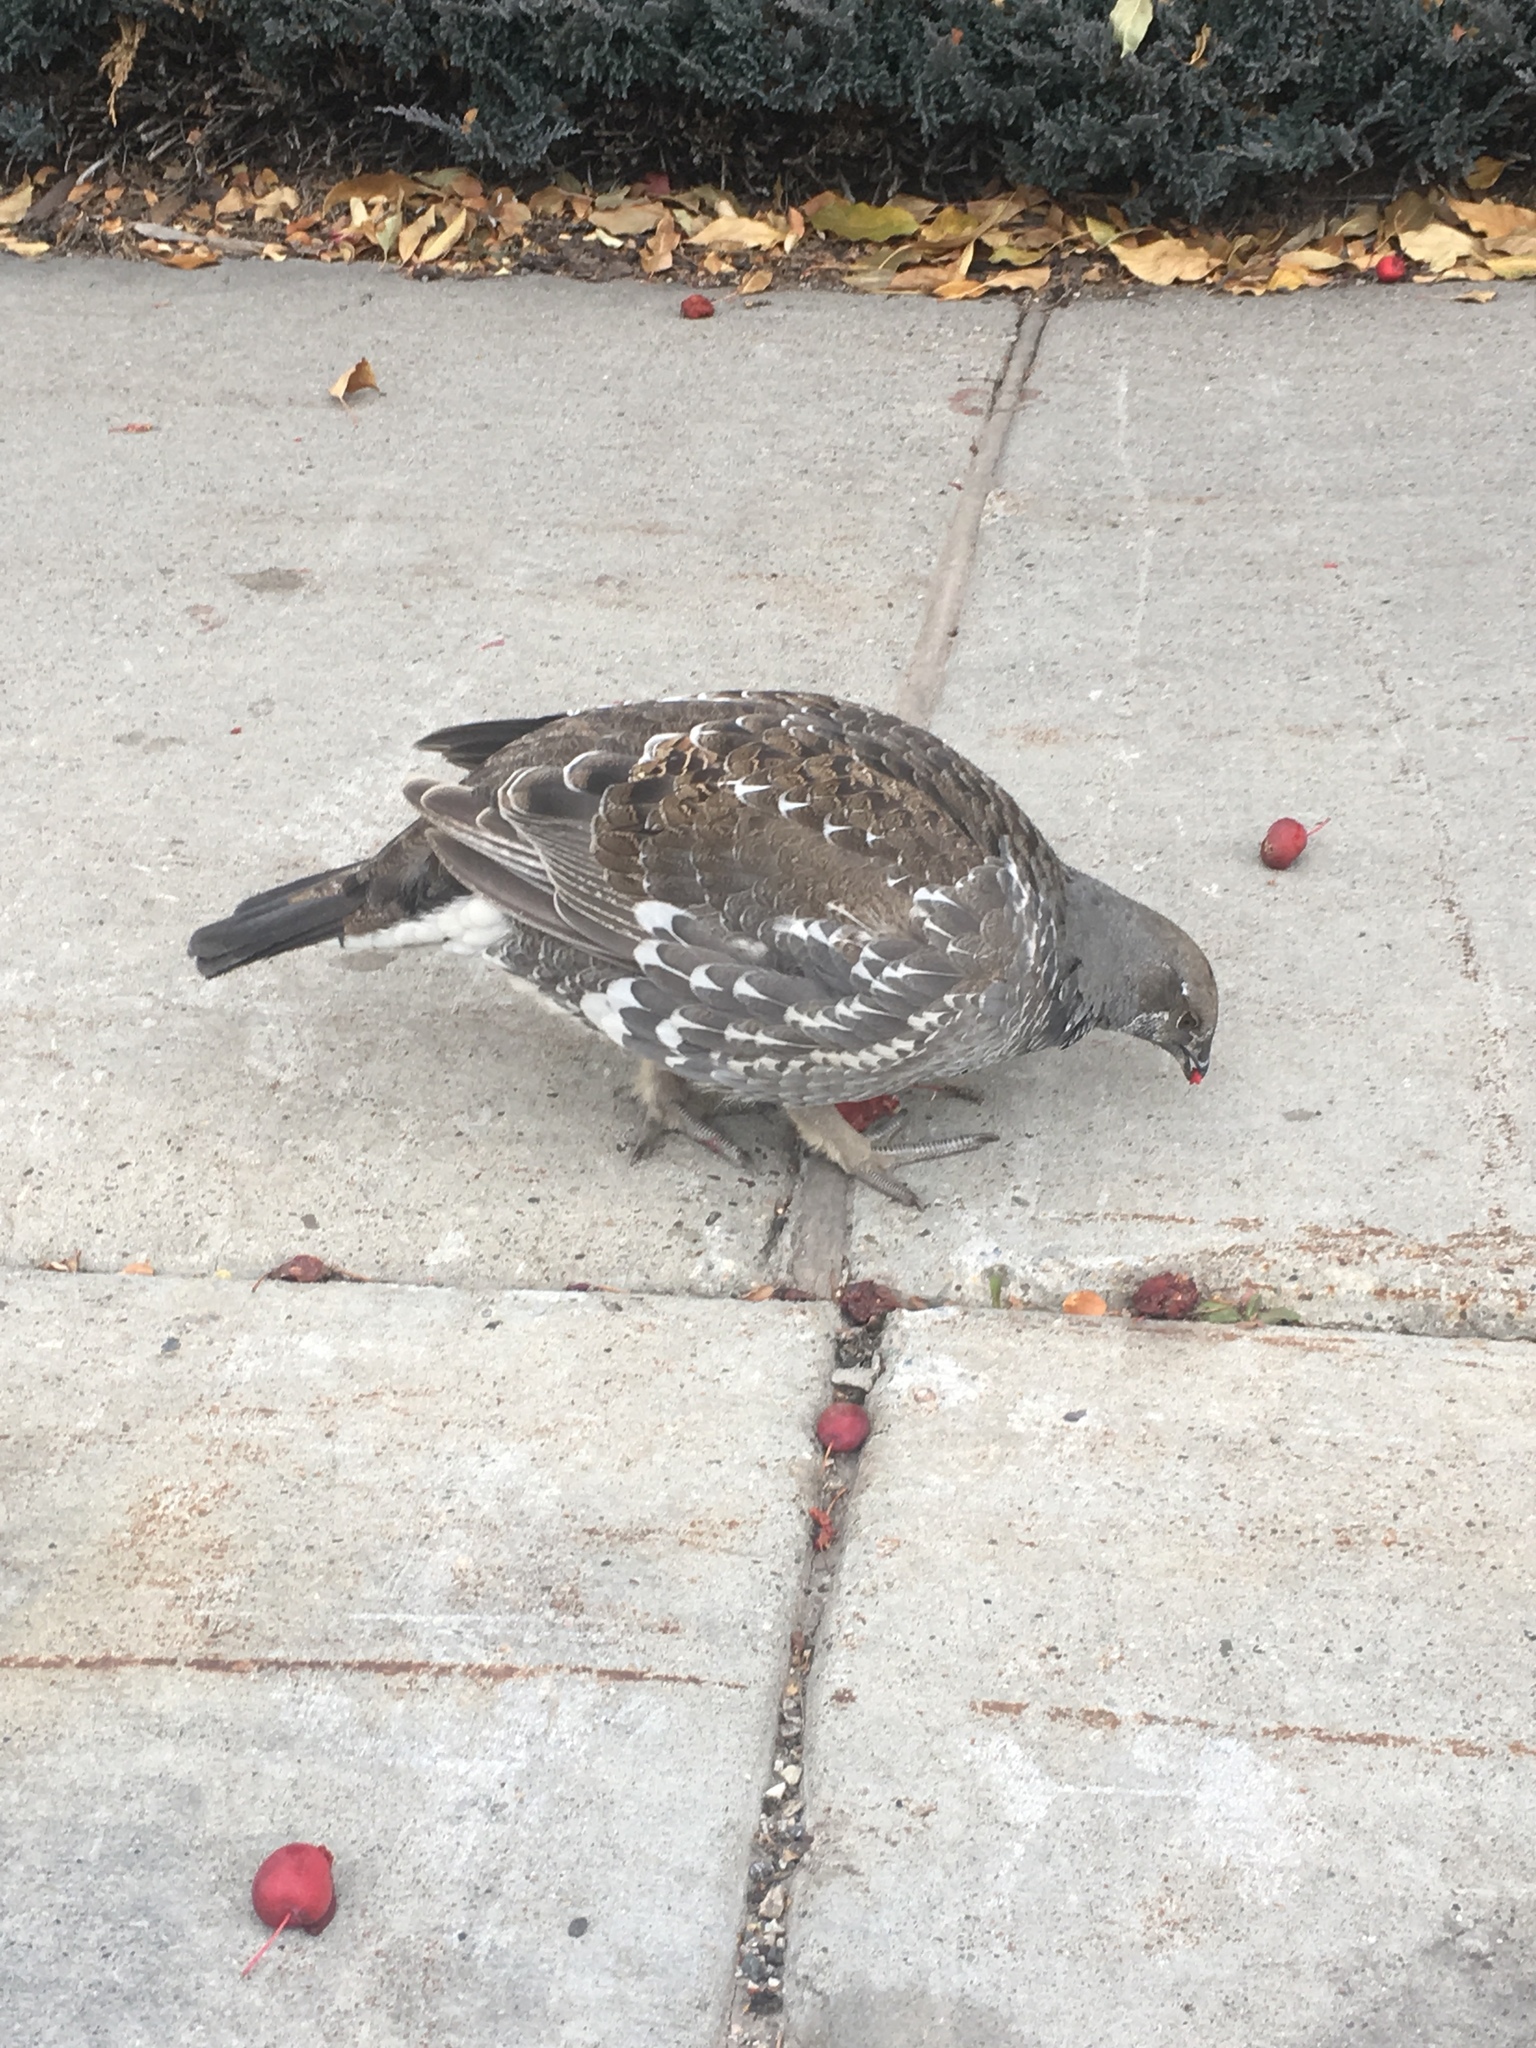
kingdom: Animalia
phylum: Chordata
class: Aves
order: Galliformes
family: Phasianidae
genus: Dendragapus
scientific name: Dendragapus obscurus
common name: Dusky grouse
